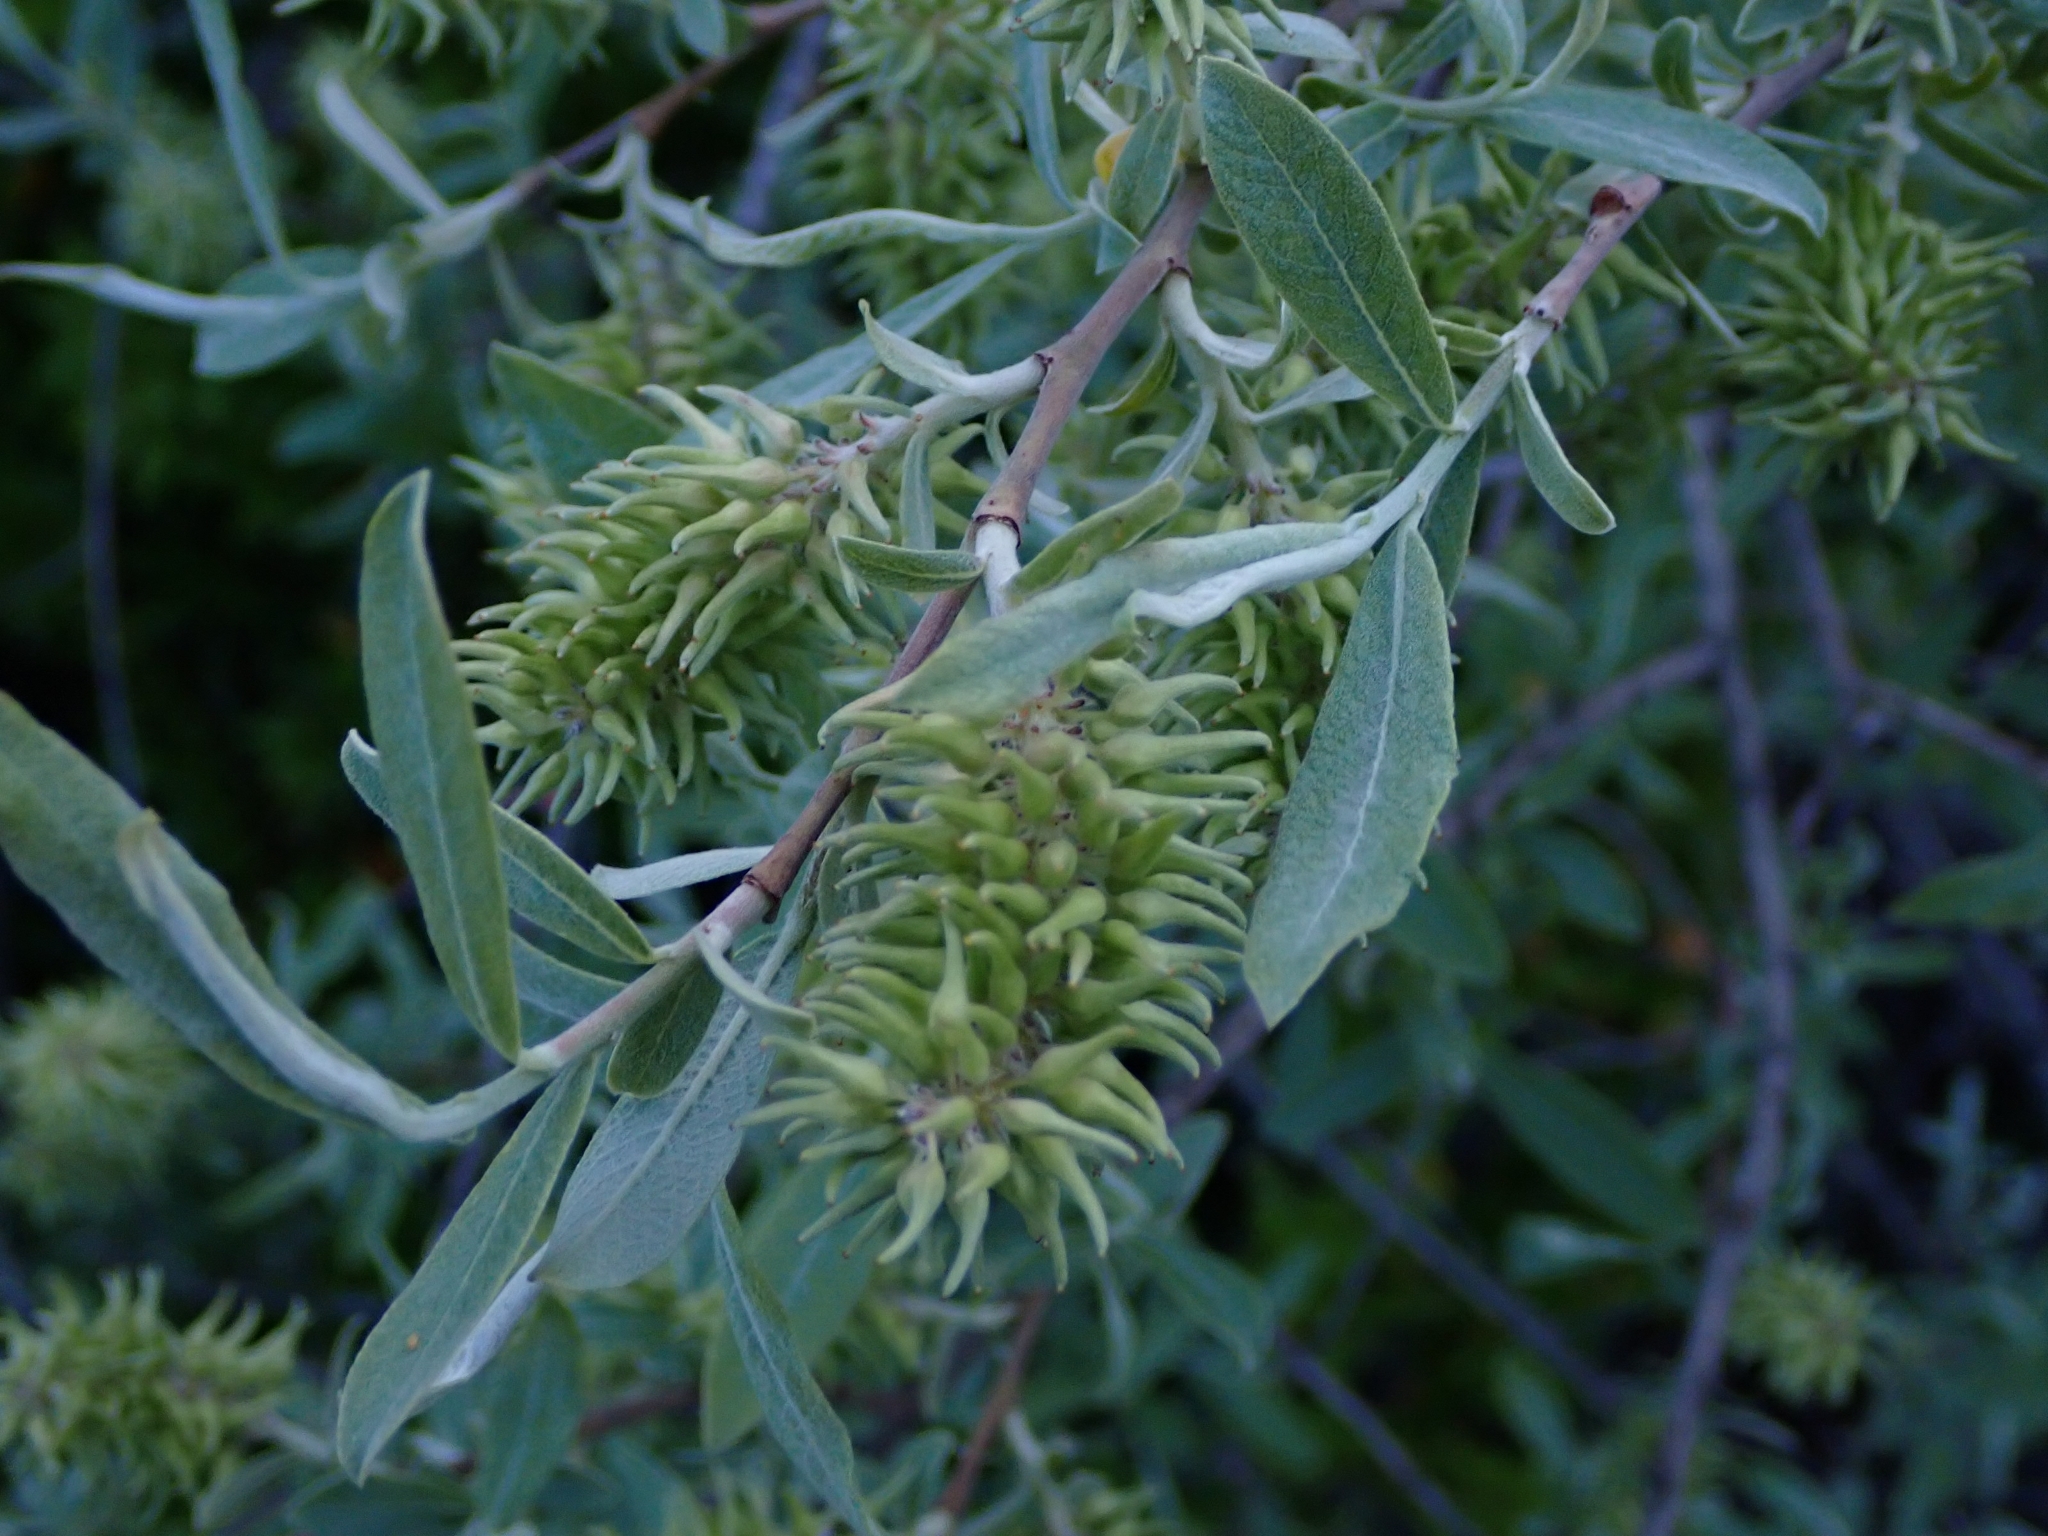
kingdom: Plantae
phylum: Tracheophyta
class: Magnoliopsida
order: Malpighiales
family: Salicaceae
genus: Salix
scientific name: Salix salviifolia
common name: Salvia-leaf willow
